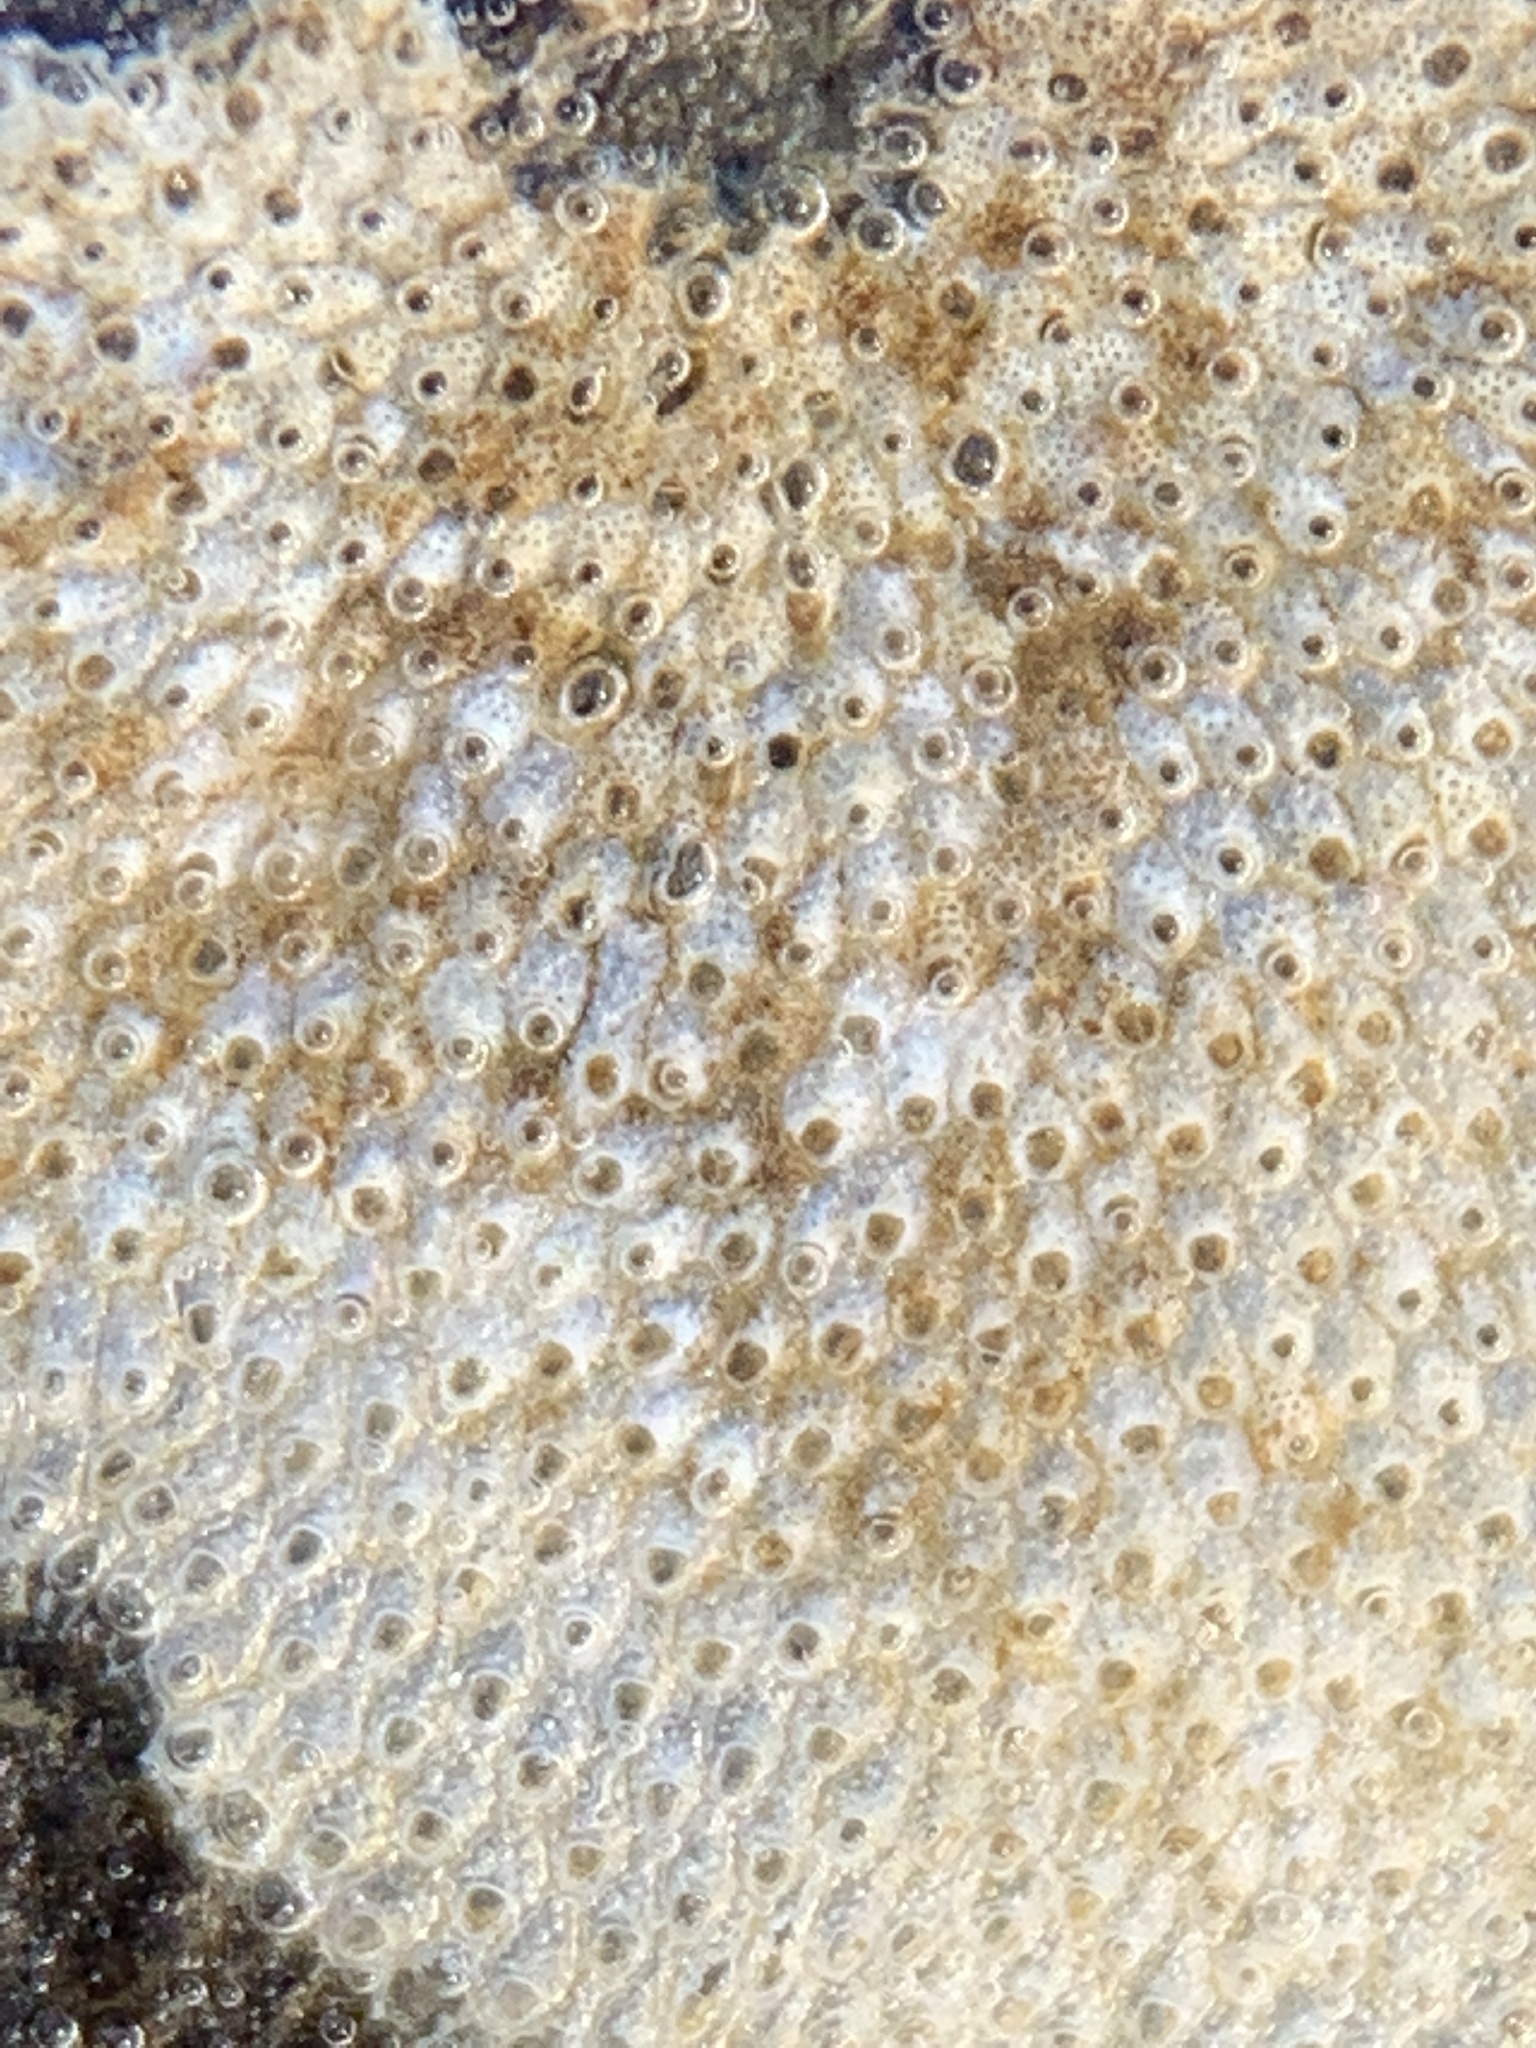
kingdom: Animalia
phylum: Bryozoa
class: Gymnolaemata
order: Cheilostomatida
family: Cryptosulidae
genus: Cryptosula
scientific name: Cryptosula pallasiana
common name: Red crust
